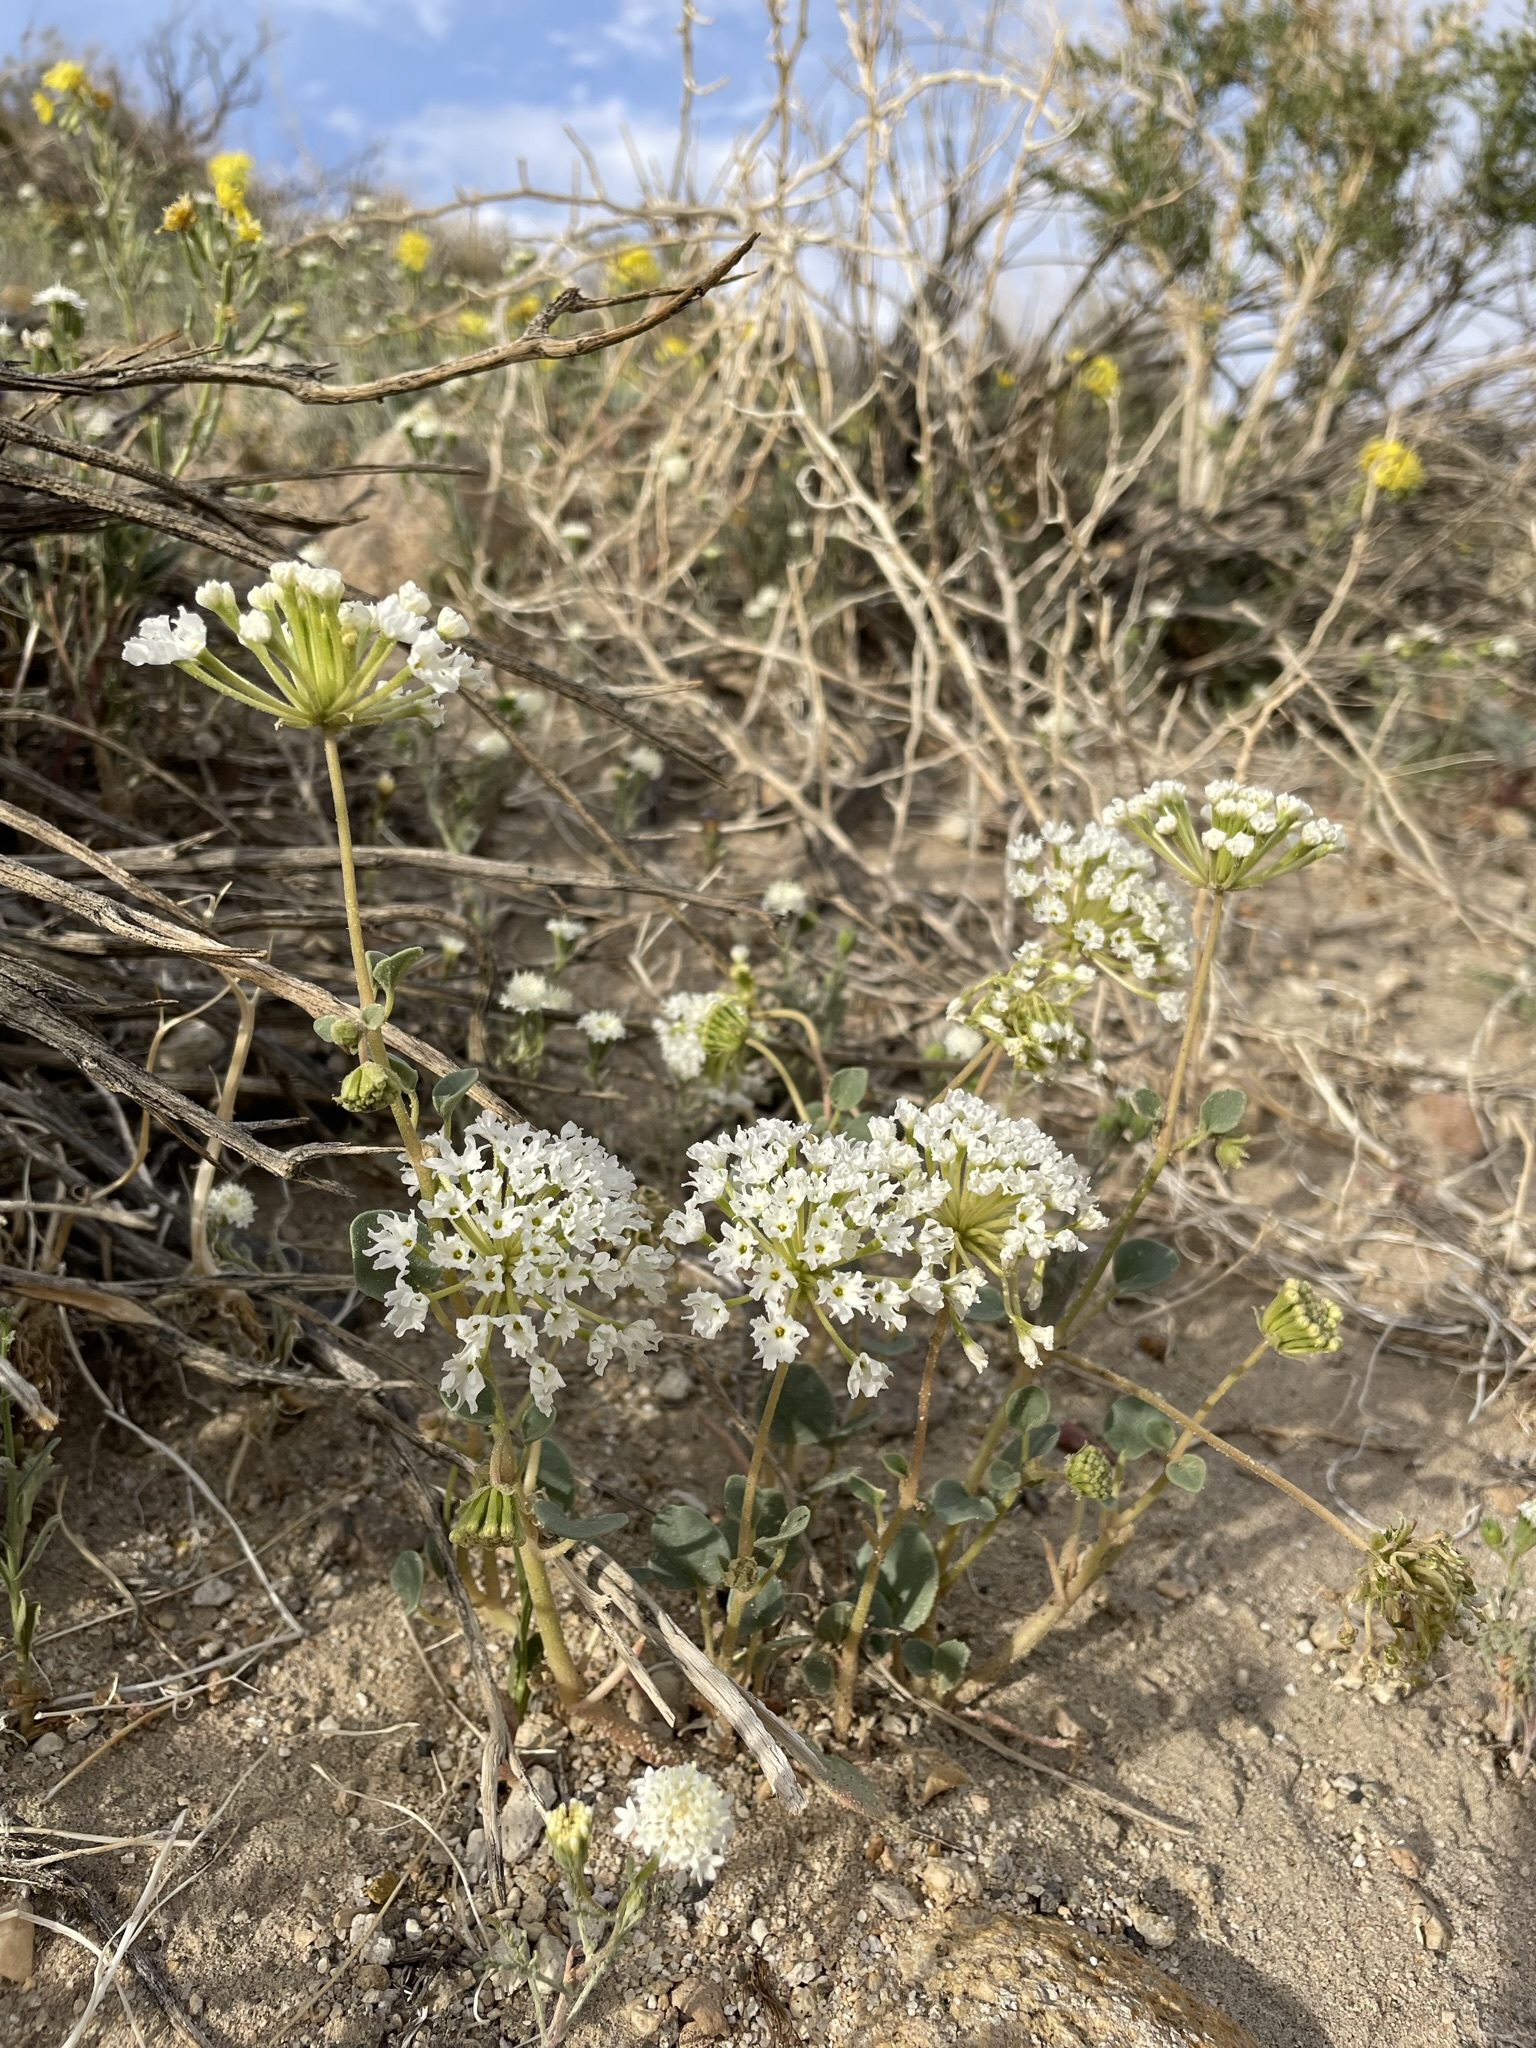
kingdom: Plantae
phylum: Tracheophyta
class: Magnoliopsida
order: Caryophyllales
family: Nyctaginaceae
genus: Abronia
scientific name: Abronia turbinata
